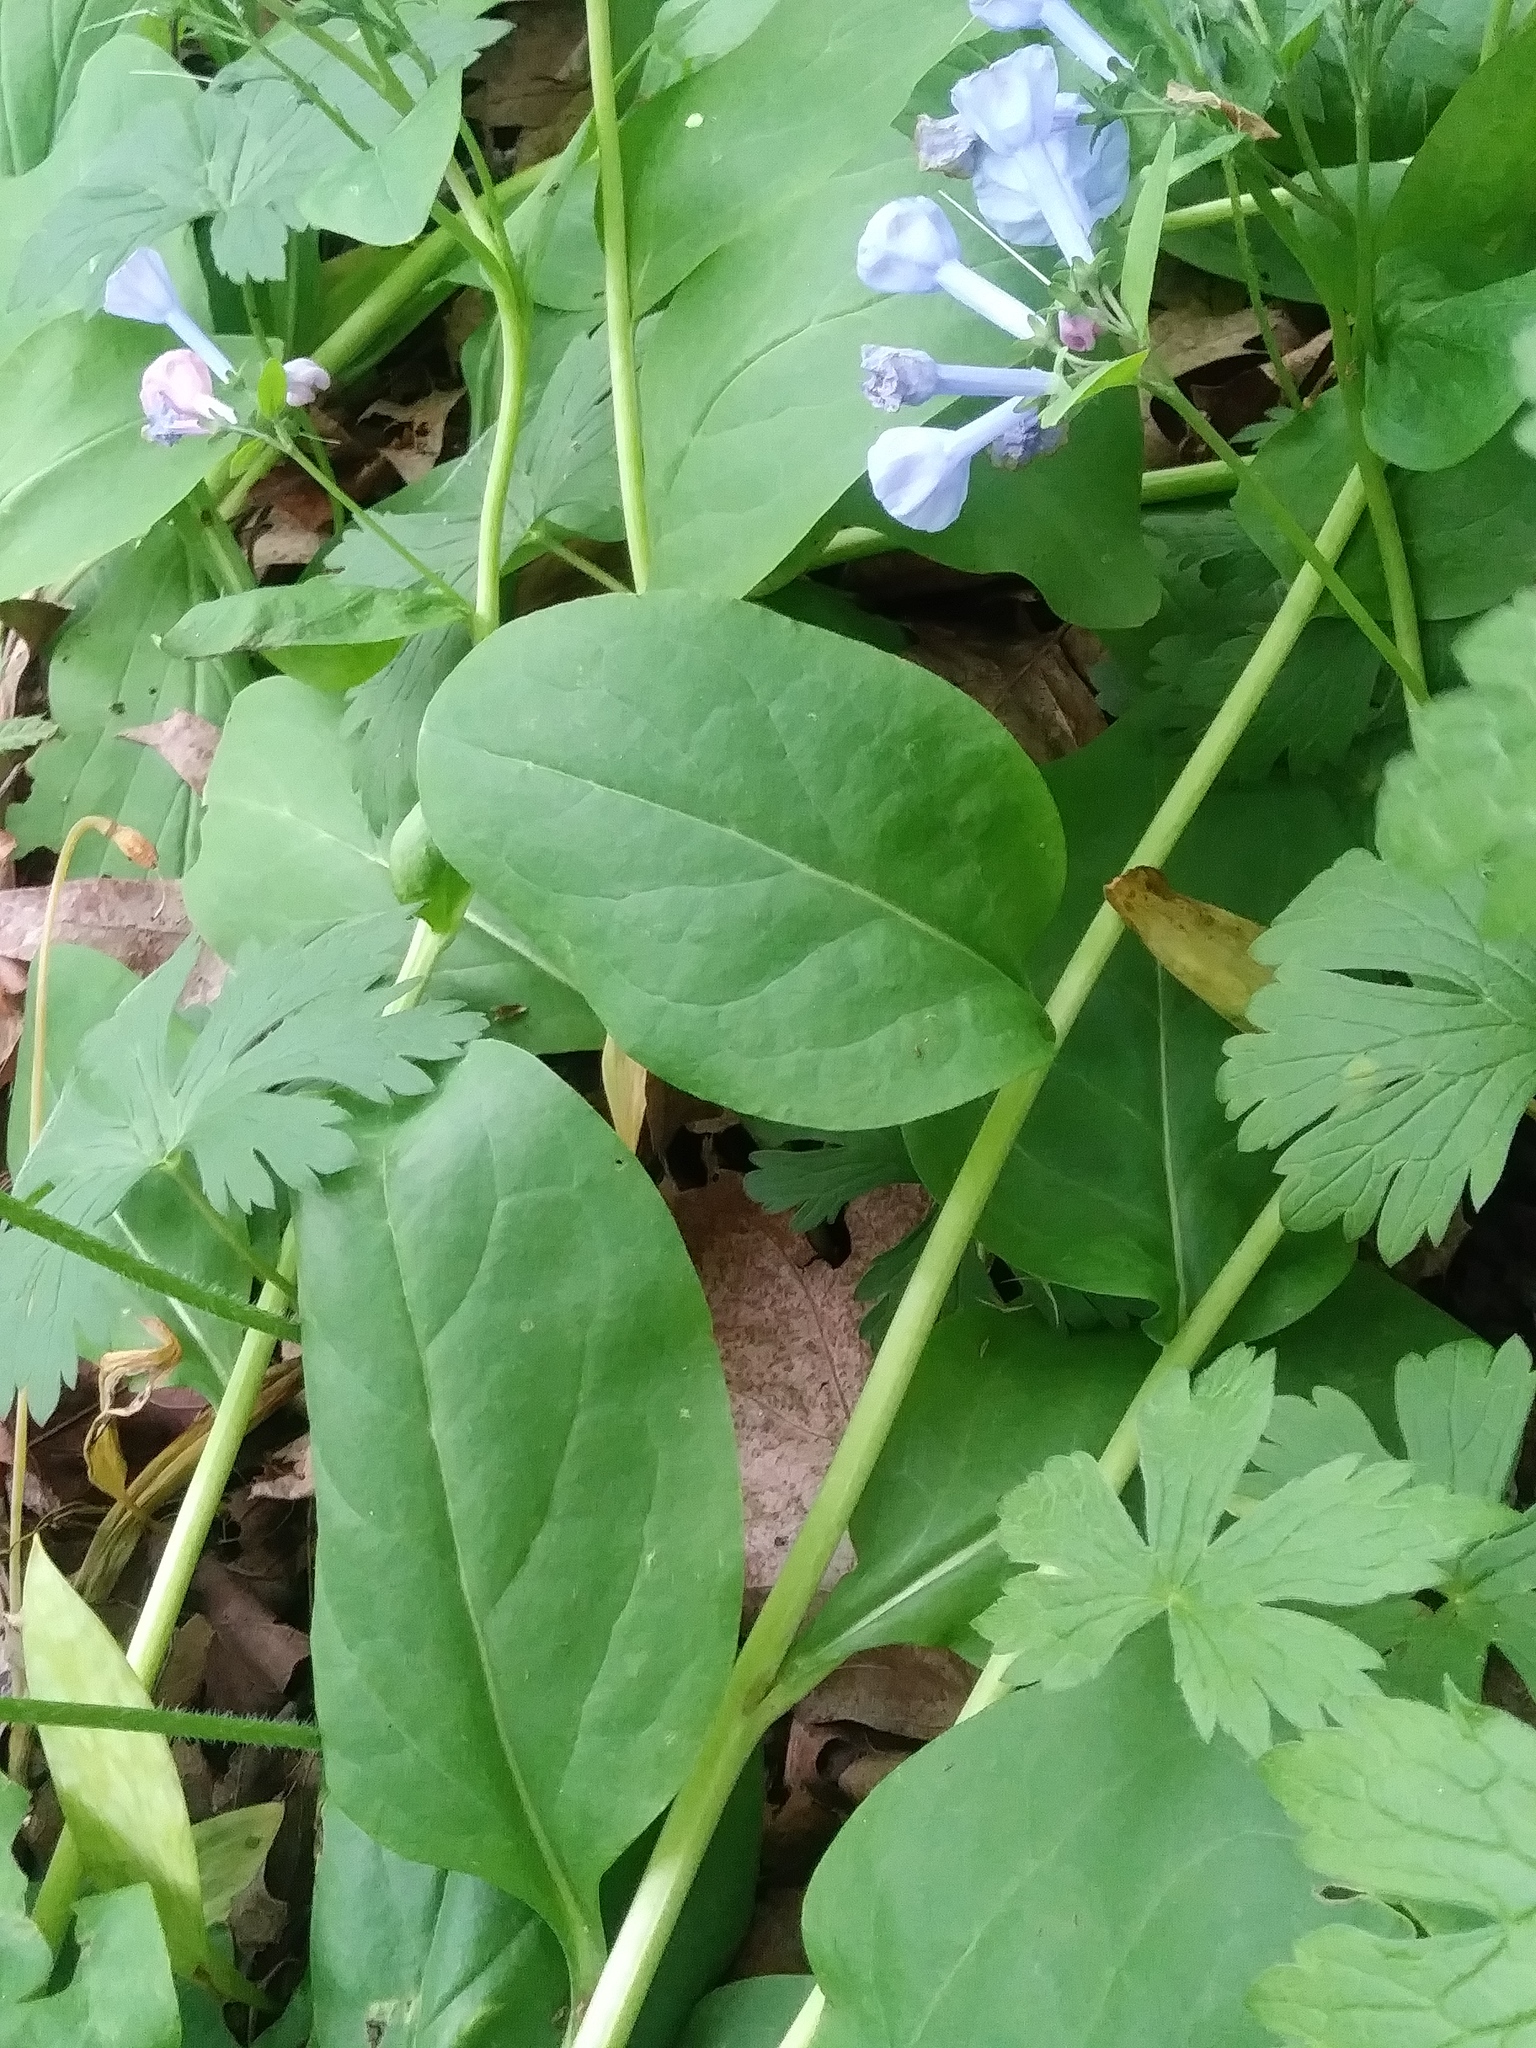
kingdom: Plantae
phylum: Tracheophyta
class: Magnoliopsida
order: Boraginales
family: Boraginaceae
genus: Mertensia
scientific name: Mertensia virginica
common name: Virginia bluebells
